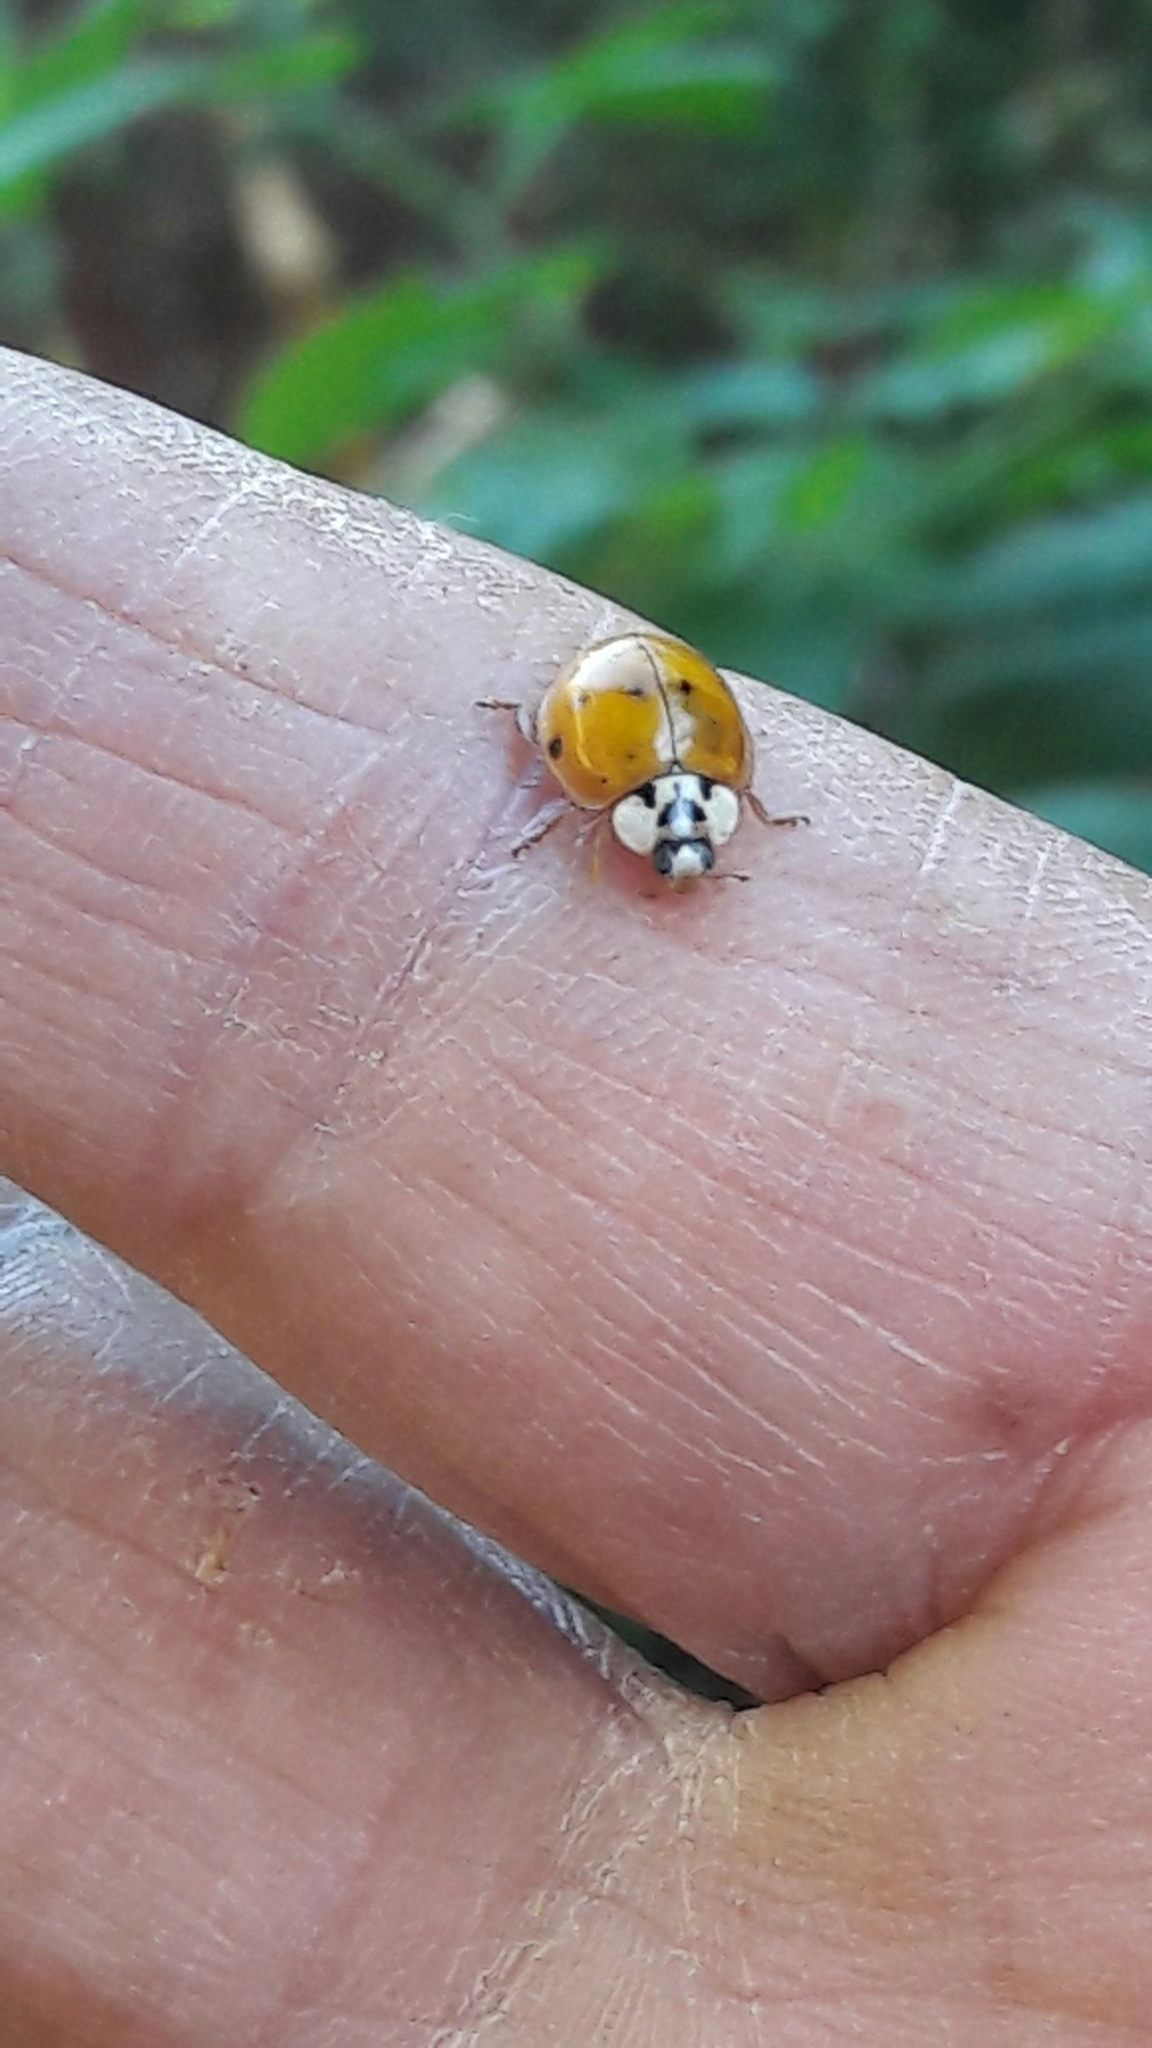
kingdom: Animalia
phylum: Arthropoda
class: Insecta
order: Coleoptera
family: Coccinellidae
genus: Harmonia
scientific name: Harmonia axyridis
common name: Harlequin ladybird
